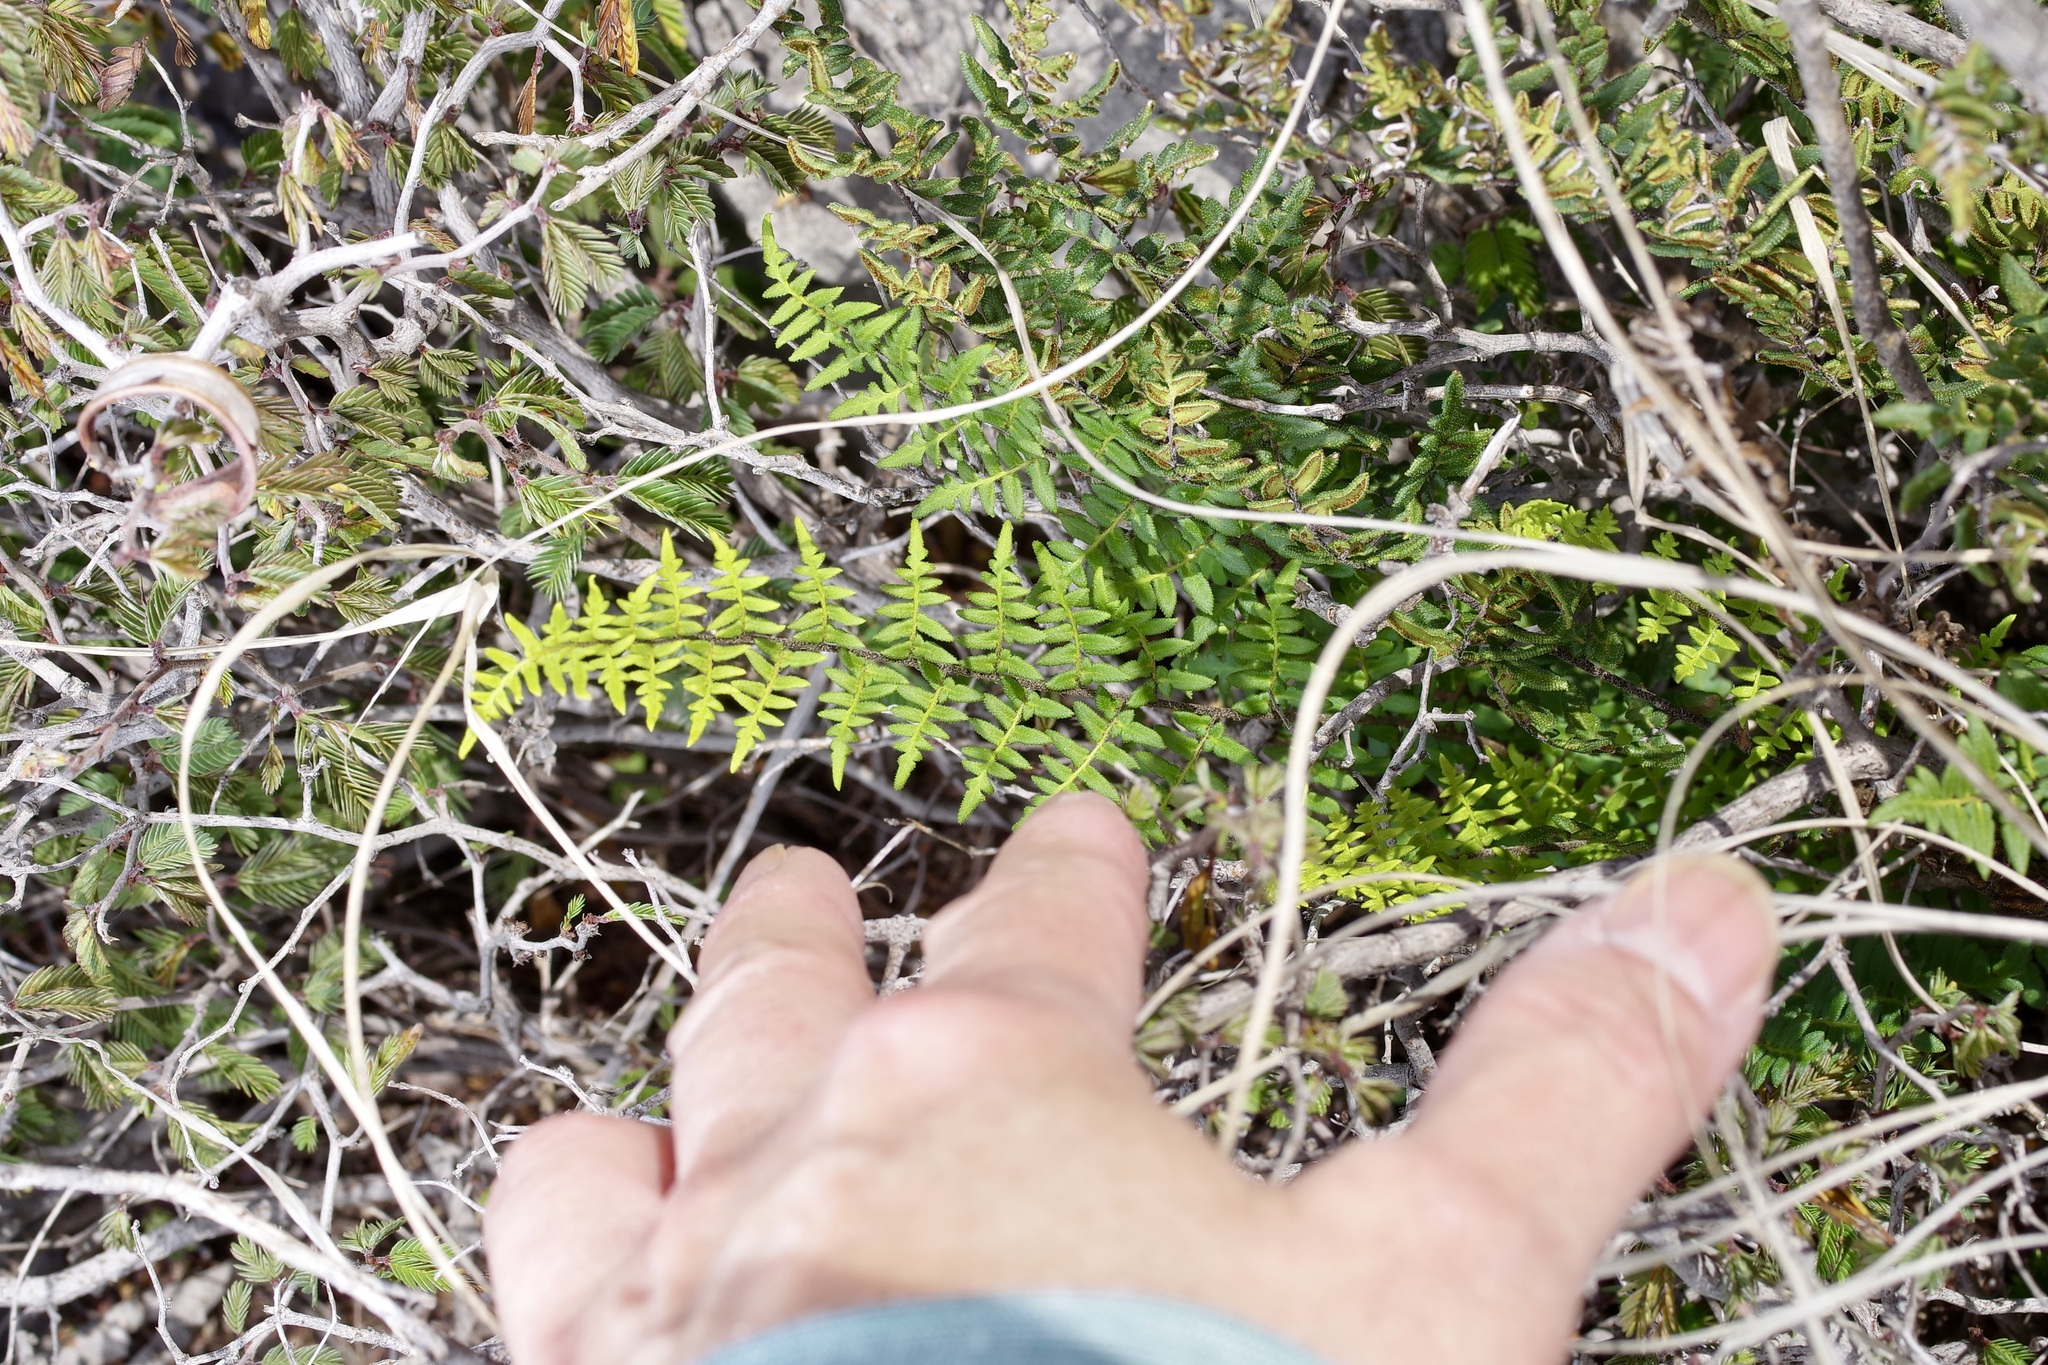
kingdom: Plantae
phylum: Tracheophyta
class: Polypodiopsida
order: Polypodiales
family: Pteridaceae
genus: Myriopteris
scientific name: Myriopteris scabra
